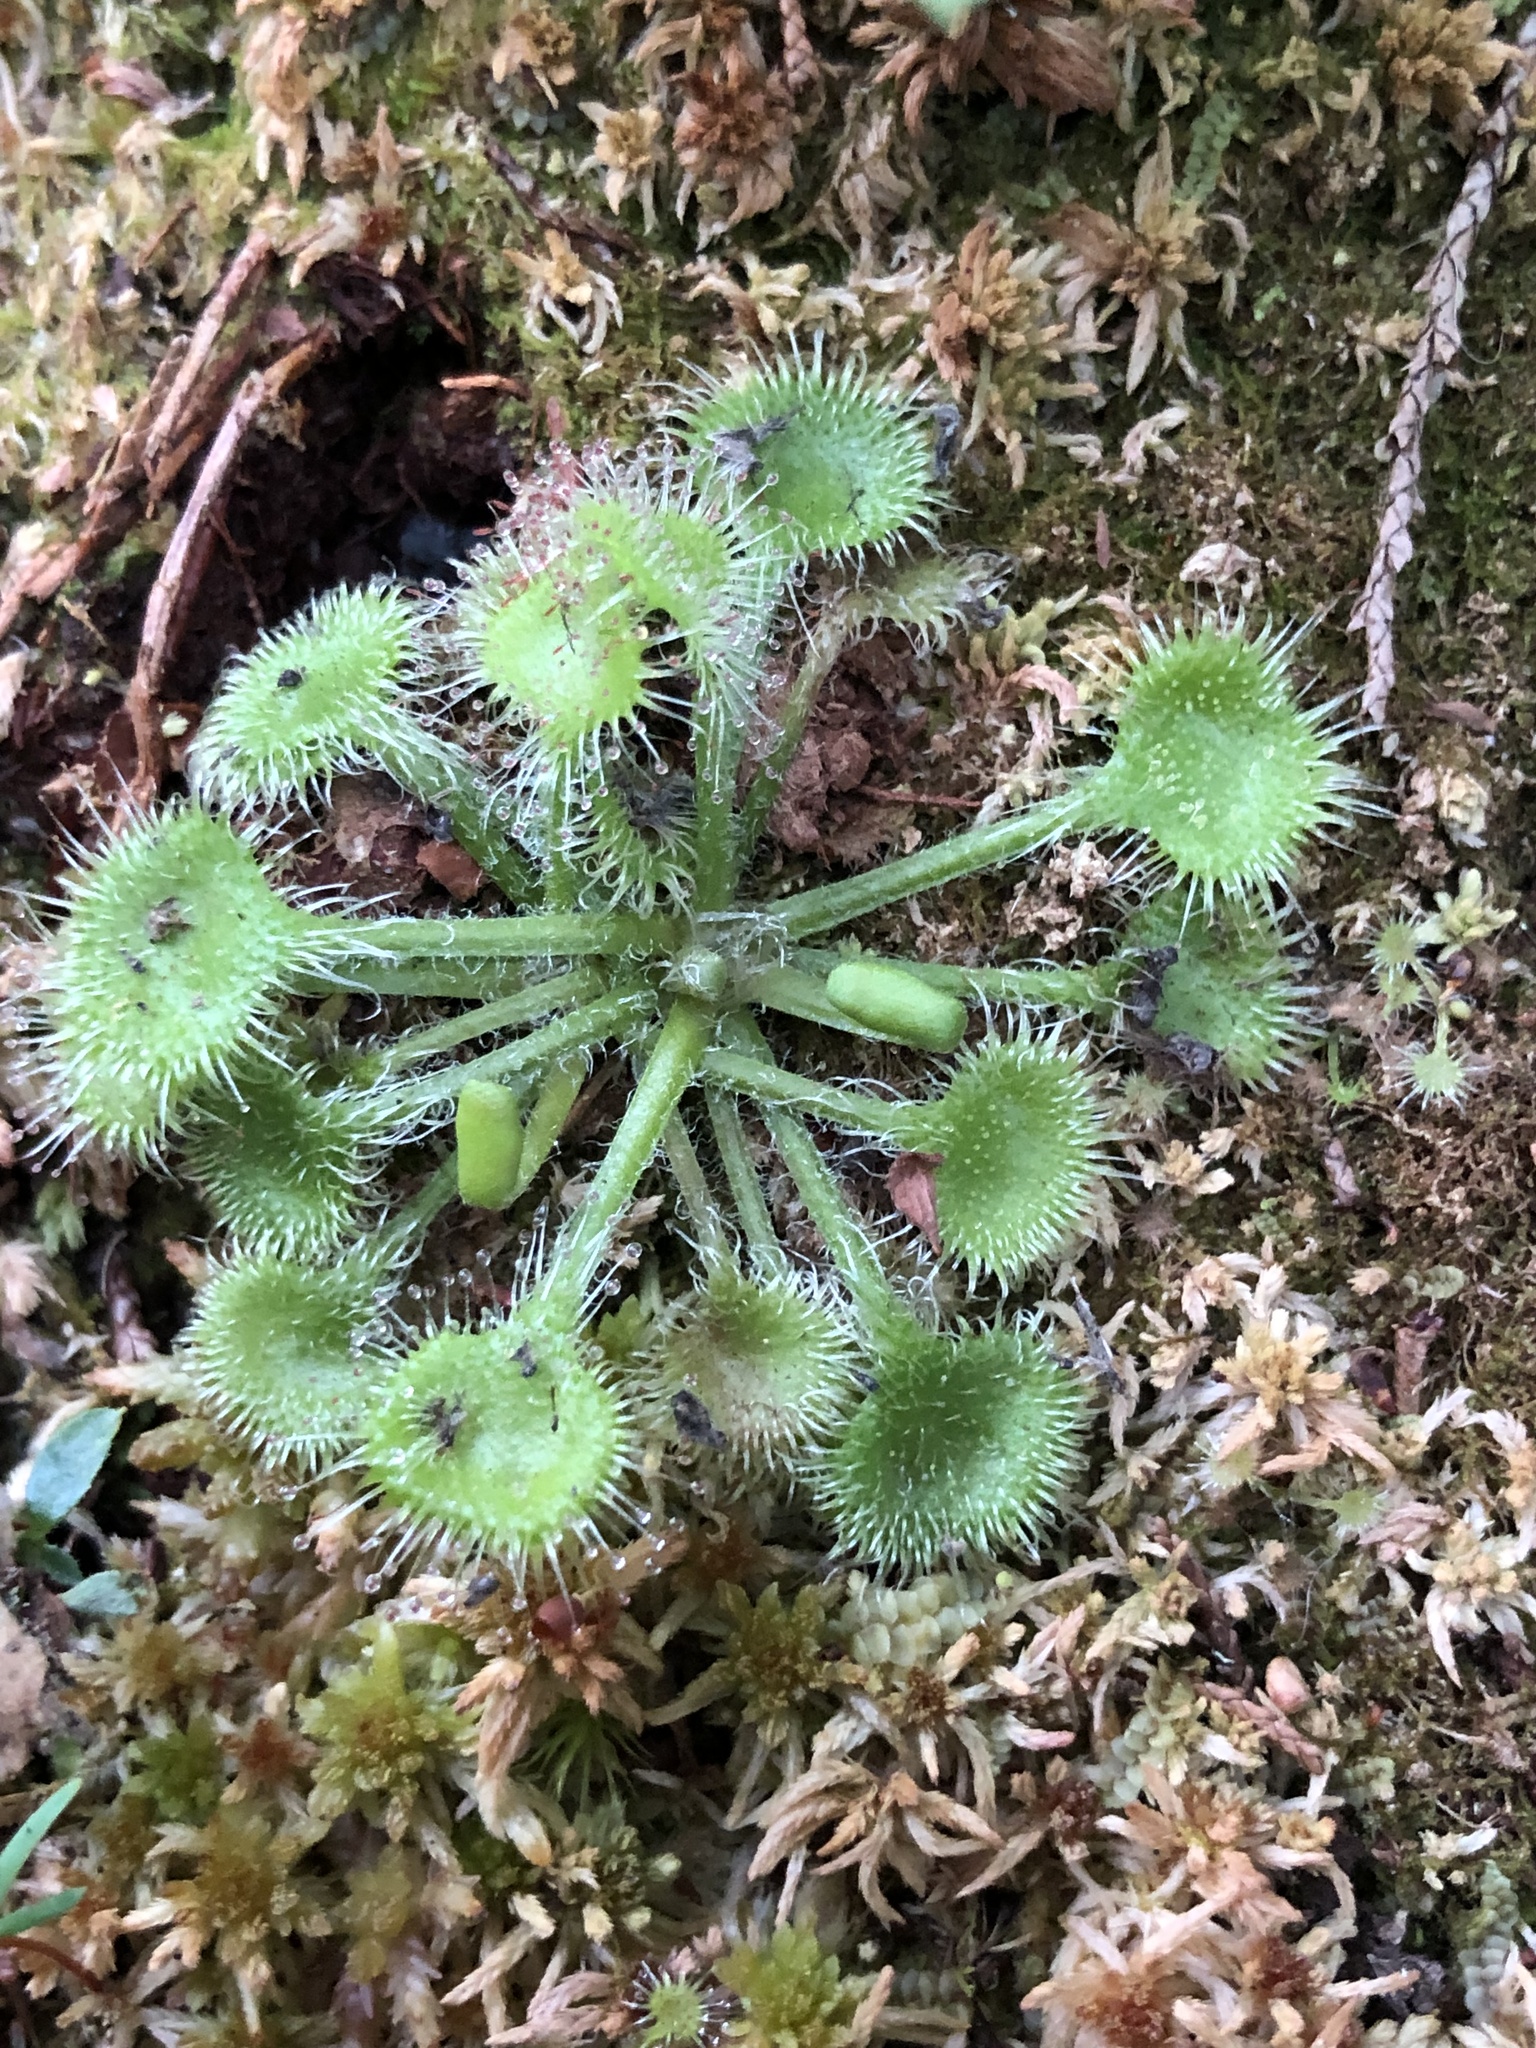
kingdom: Plantae
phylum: Tracheophyta
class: Magnoliopsida
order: Caryophyllales
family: Droseraceae
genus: Drosera
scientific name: Drosera rotundifolia
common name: Round-leaved sundew
